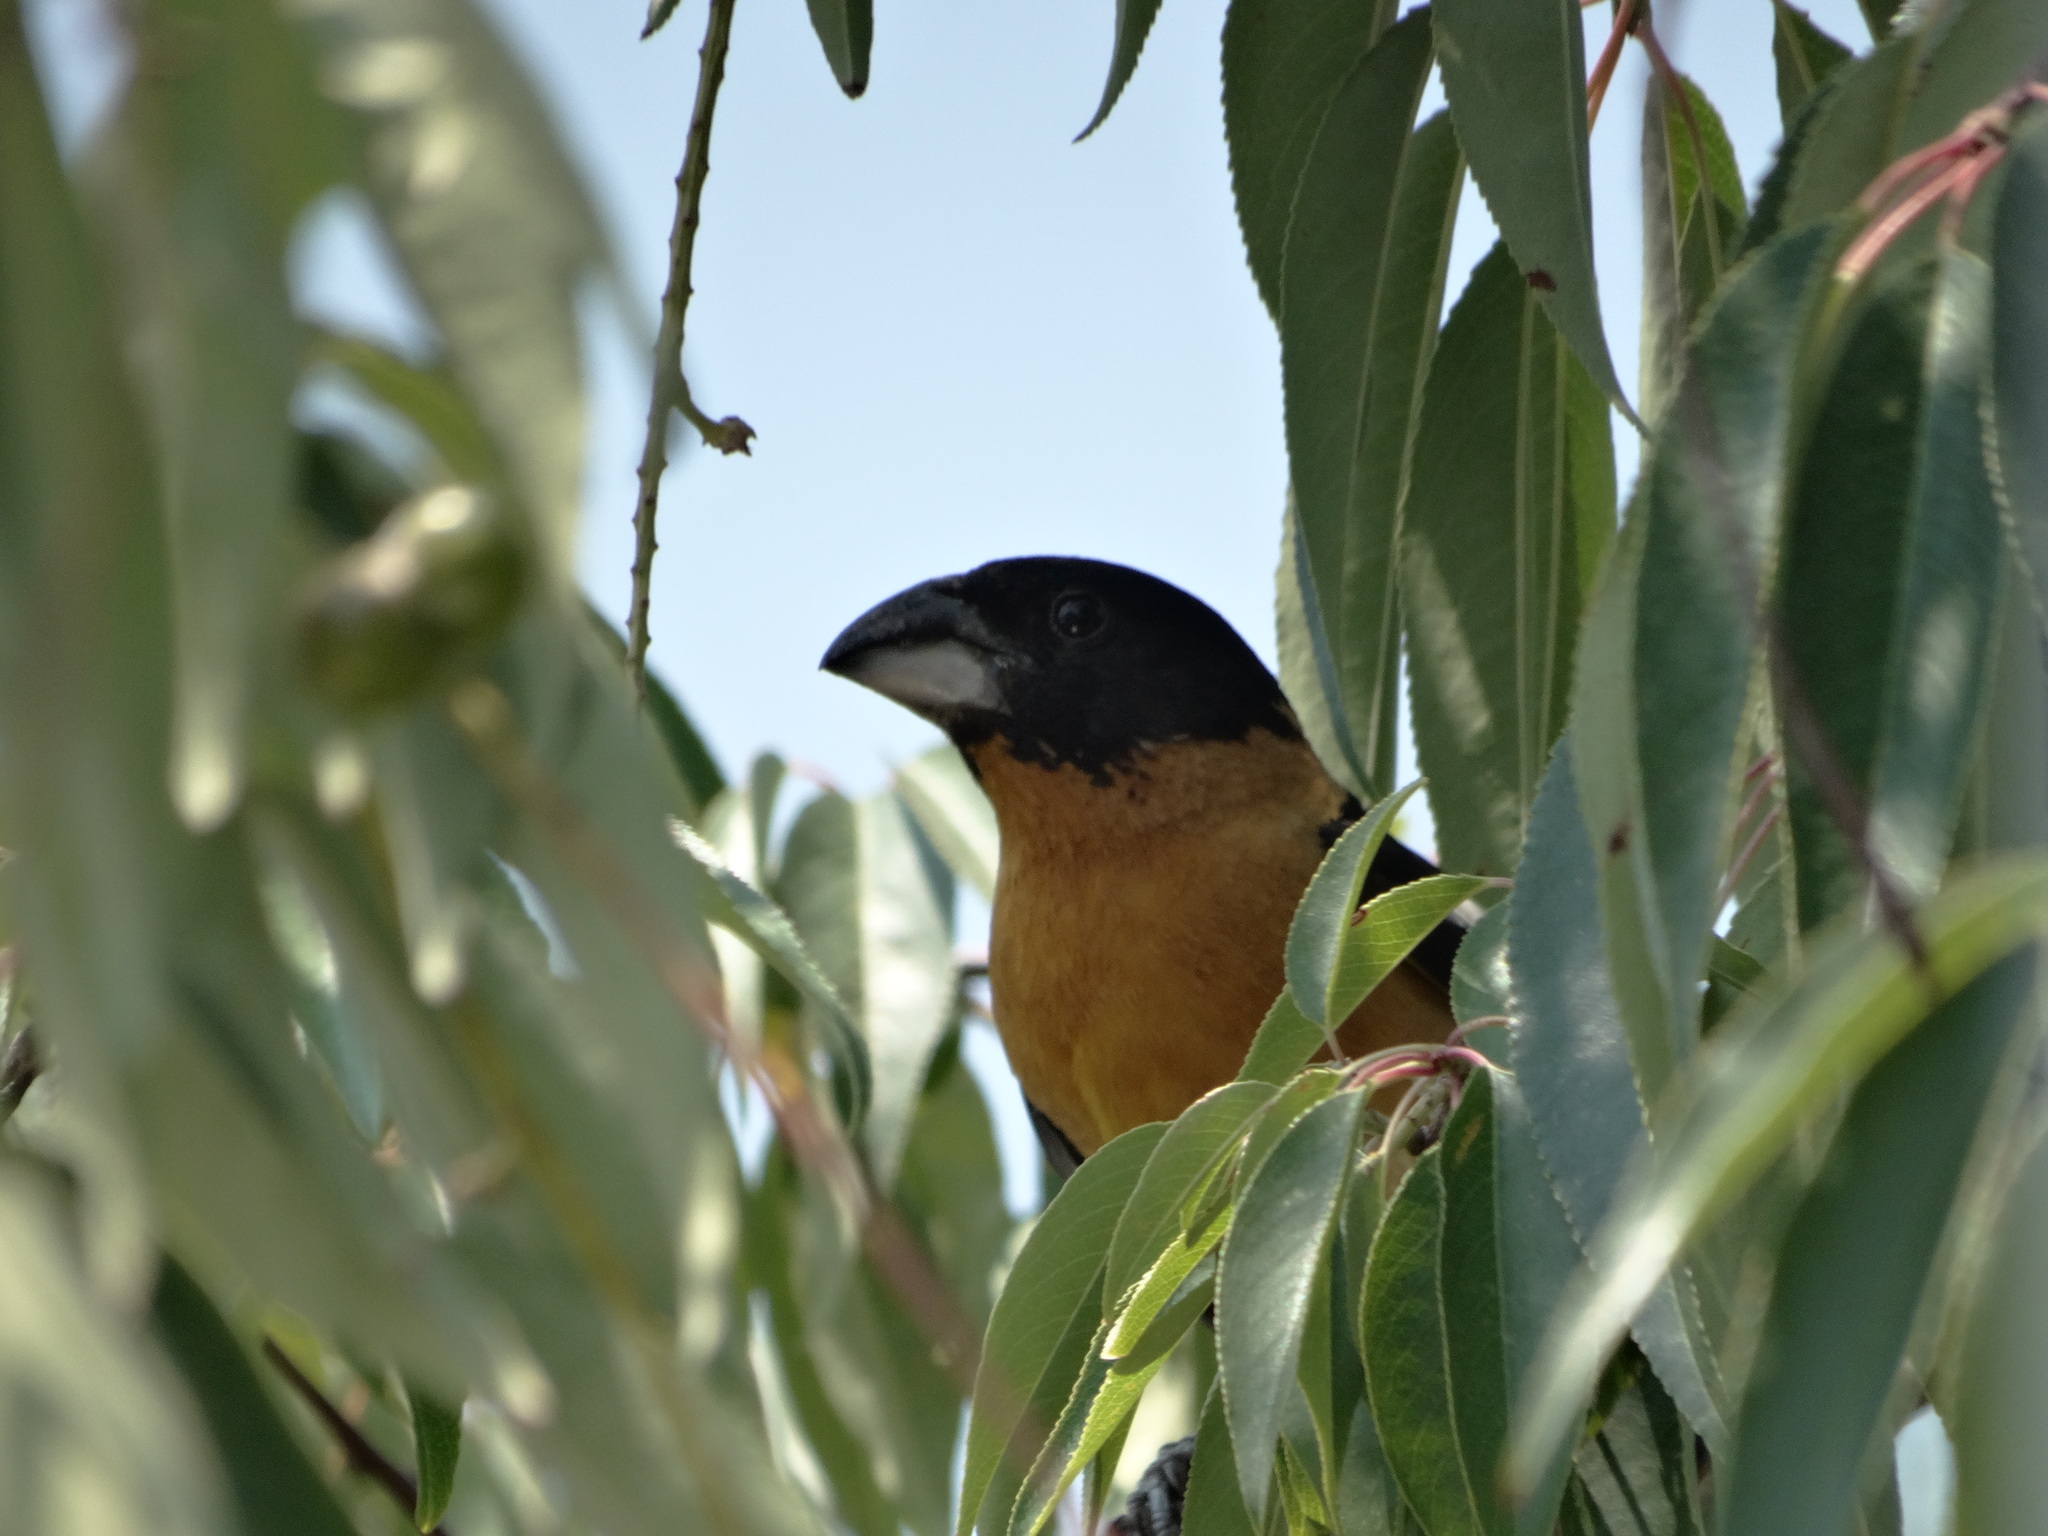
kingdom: Animalia
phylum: Chordata
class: Aves
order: Passeriformes
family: Cardinalidae
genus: Pheucticus
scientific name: Pheucticus melanocephalus
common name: Black-headed grosbeak
